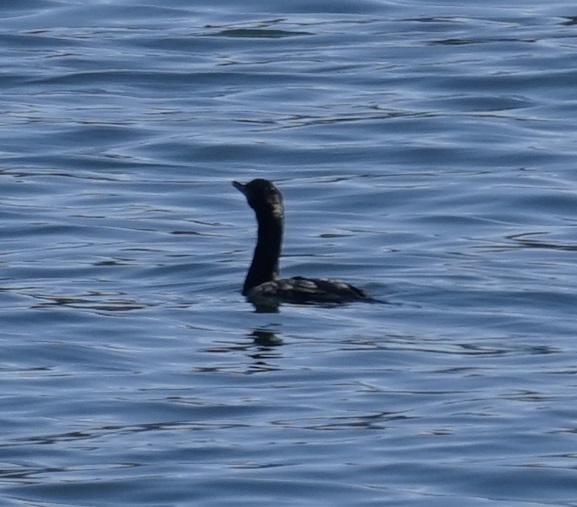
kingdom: Animalia
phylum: Chordata
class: Aves
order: Suliformes
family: Phalacrocoracidae
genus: Phalacrocorax
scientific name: Phalacrocorax sulcirostris
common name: Little black cormorant
